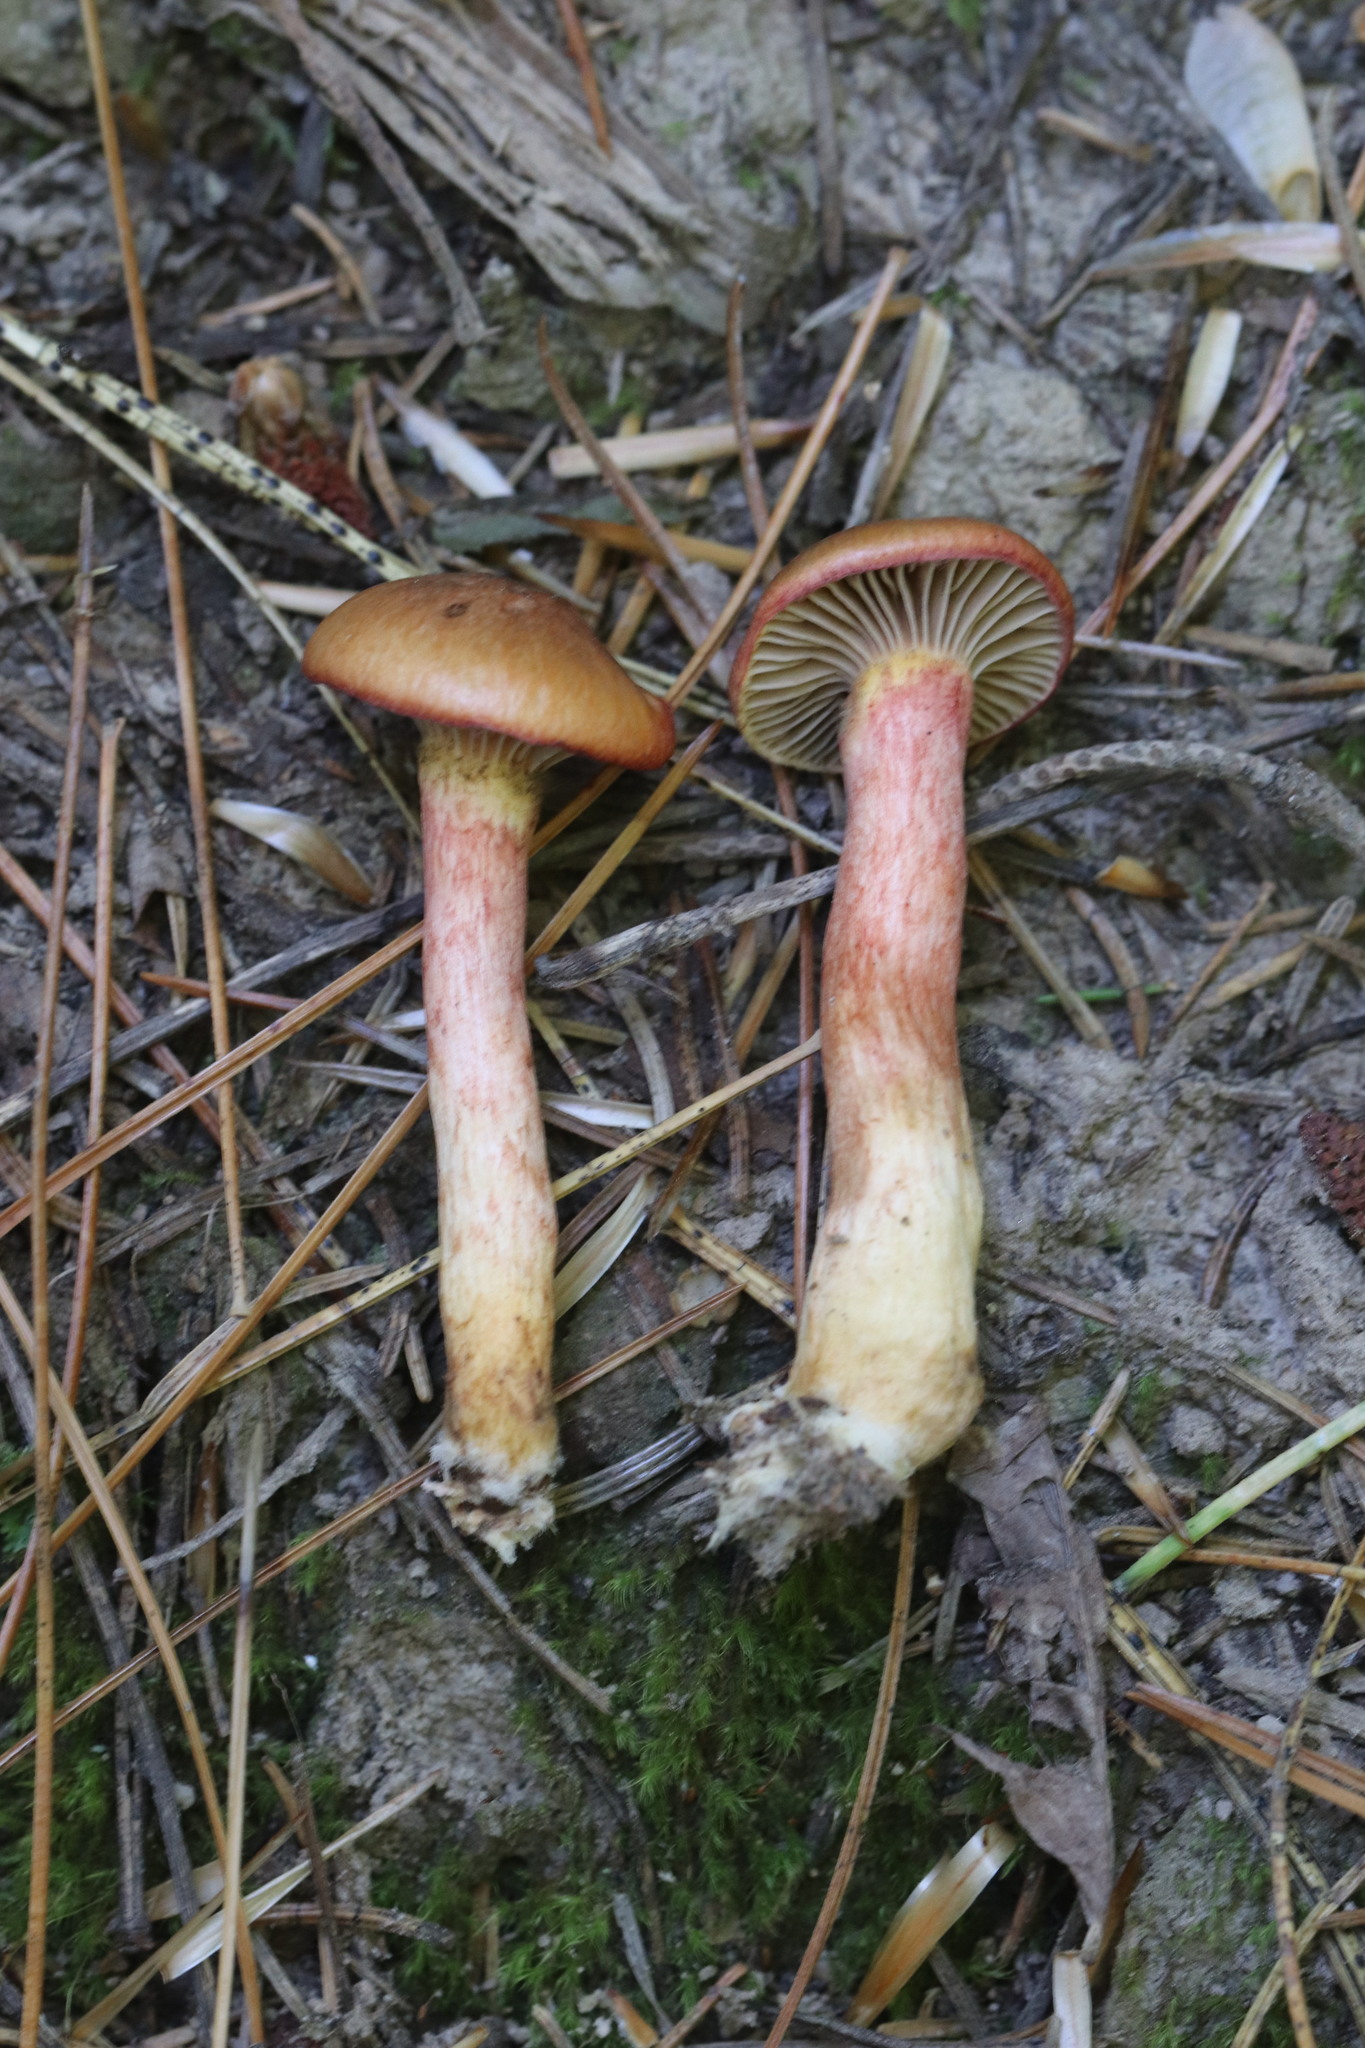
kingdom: Fungi
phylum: Basidiomycota
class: Agaricomycetes
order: Boletales
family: Gomphidiaceae
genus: Chroogomphus
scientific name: Chroogomphus rutilus
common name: Copper spike
